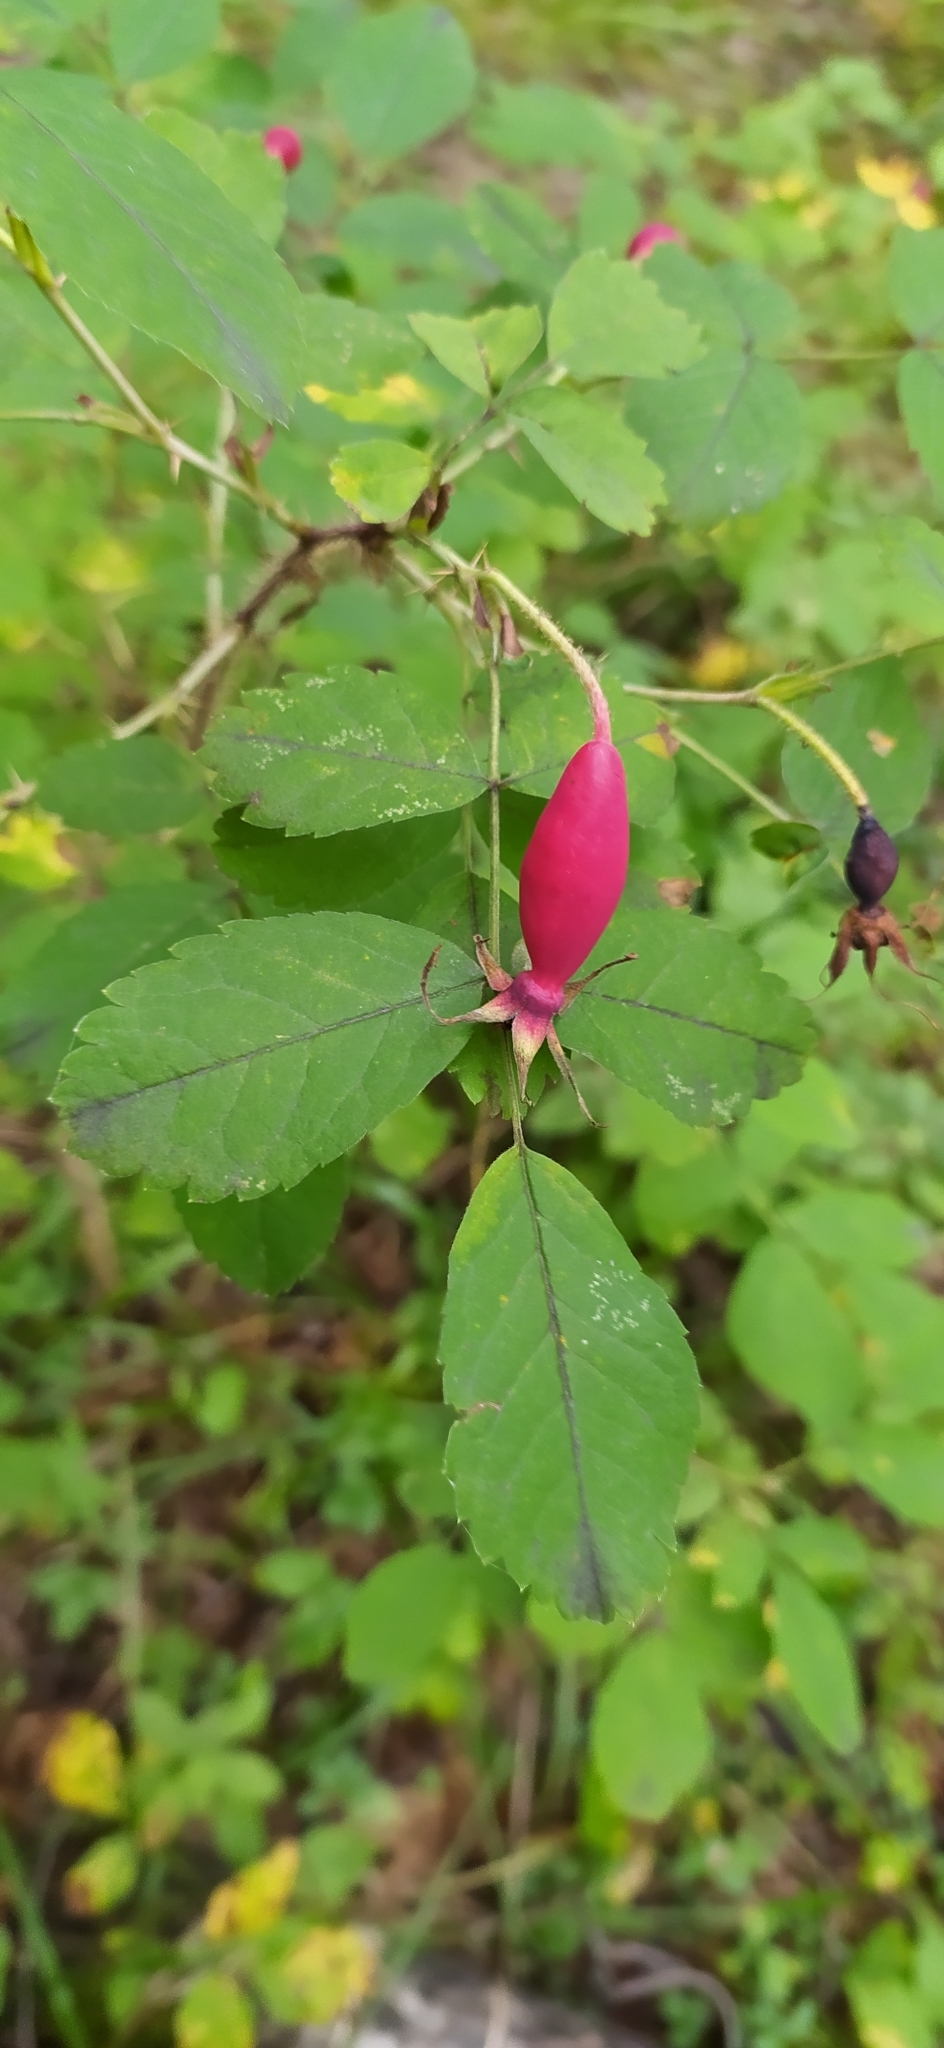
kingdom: Plantae
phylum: Tracheophyta
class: Magnoliopsida
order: Rosales
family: Rosaceae
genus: Rosa
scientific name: Rosa acicularis
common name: Prickly rose
